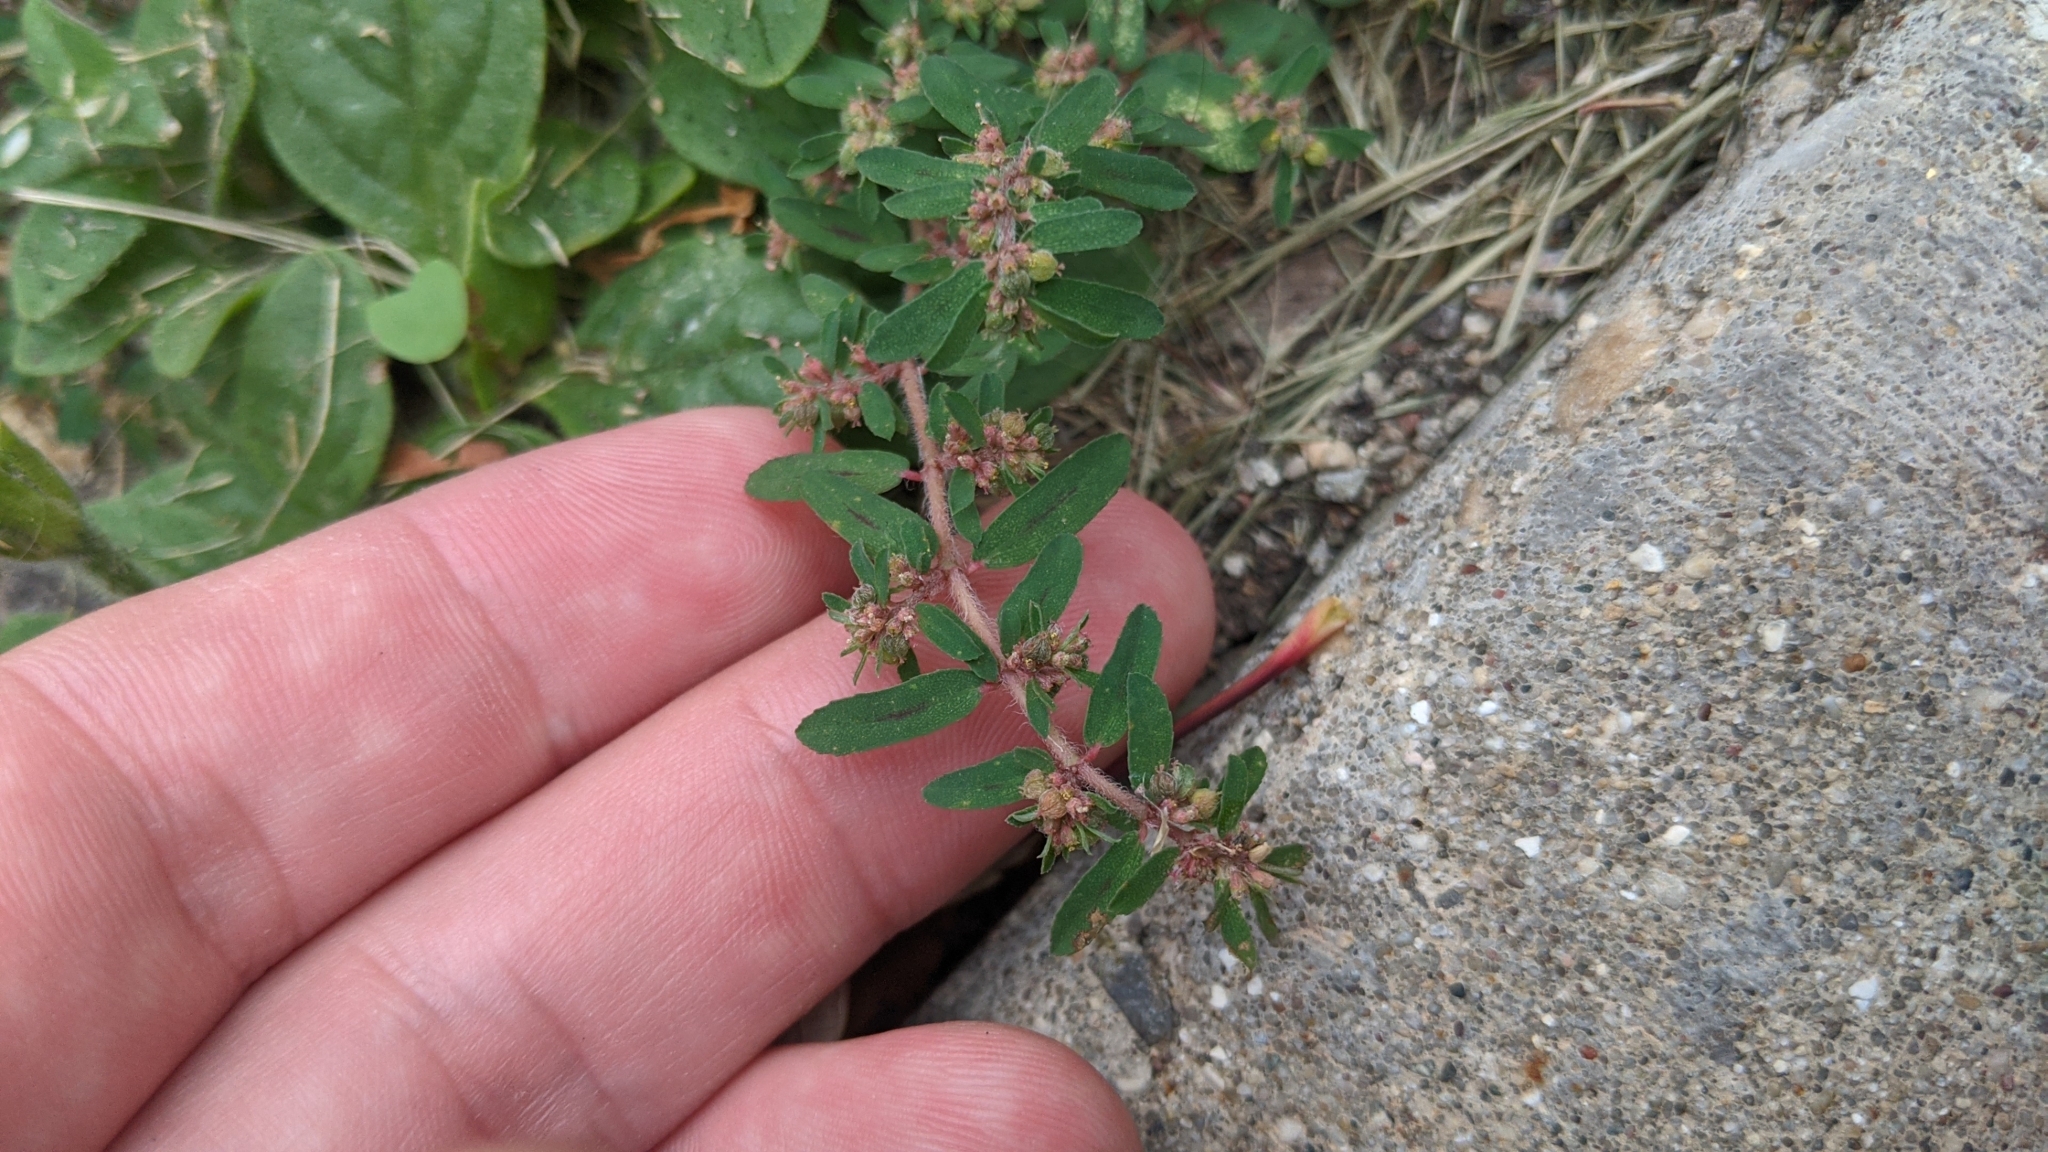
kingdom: Plantae
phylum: Tracheophyta
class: Magnoliopsida
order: Malpighiales
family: Euphorbiaceae
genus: Euphorbia
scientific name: Euphorbia maculata
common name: Spotted spurge
